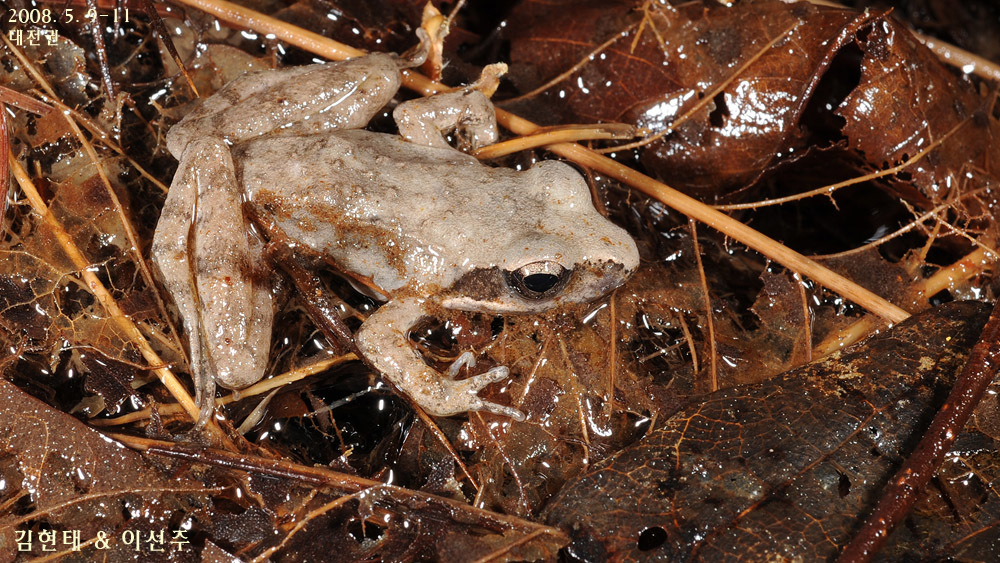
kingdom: Animalia
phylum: Chordata
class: Amphibia
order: Anura
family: Ranidae
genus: Rana
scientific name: Rana uenoi
